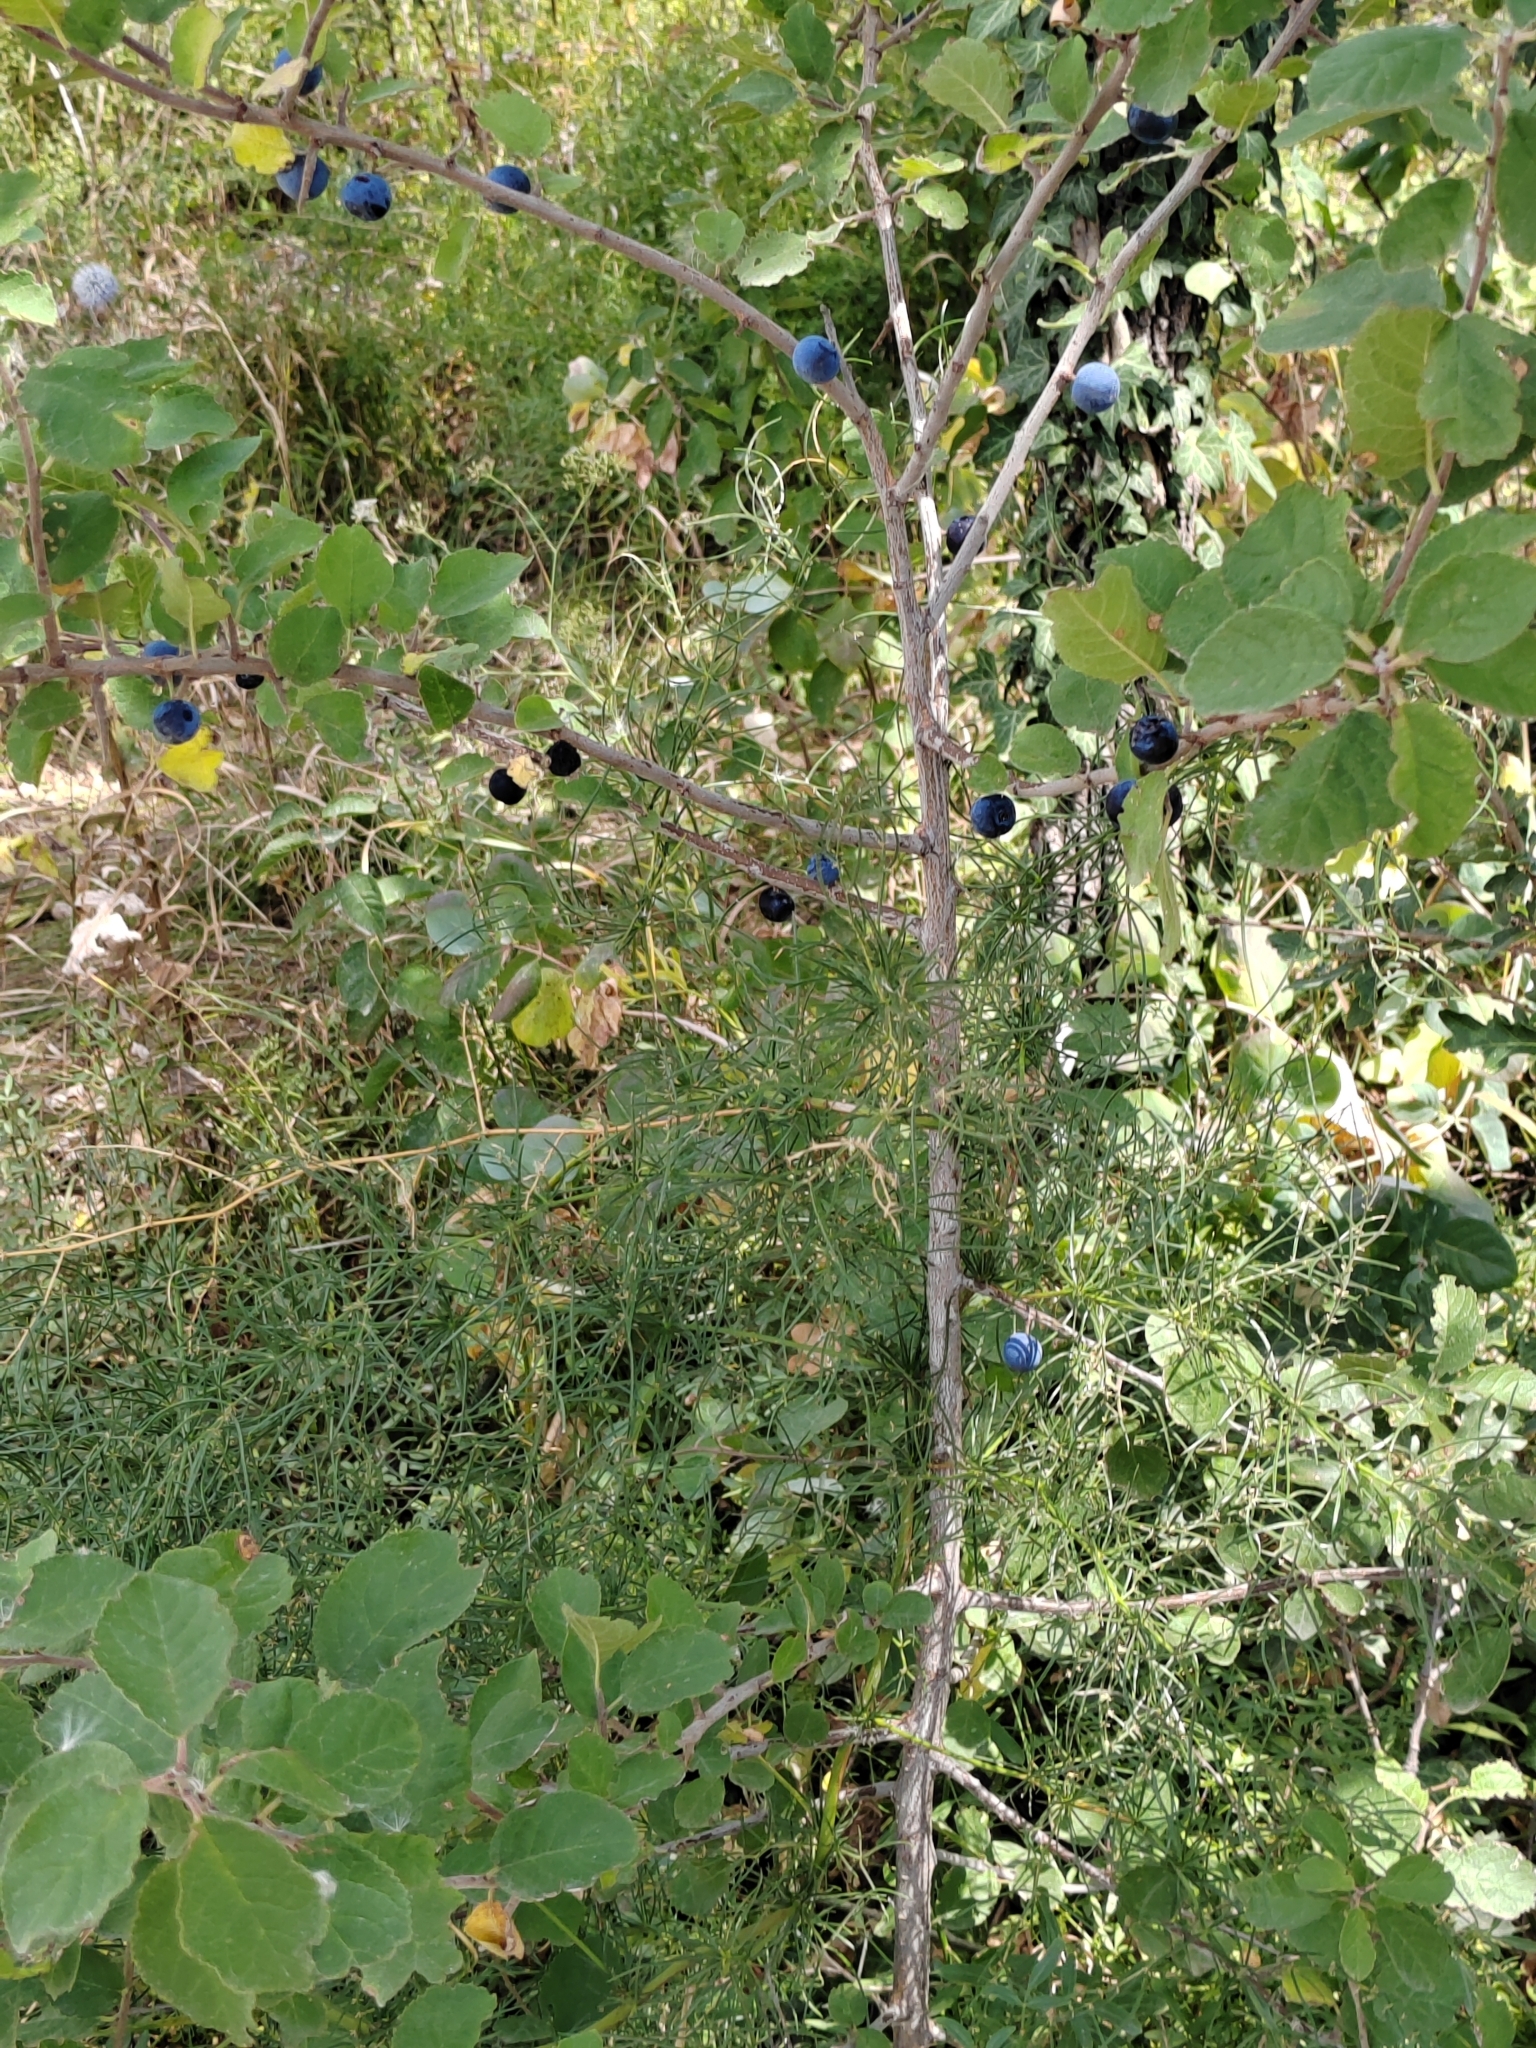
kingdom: Plantae
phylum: Tracheophyta
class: Magnoliopsida
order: Rosales
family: Rosaceae
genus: Prunus
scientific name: Prunus spinosa
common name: Blackthorn
